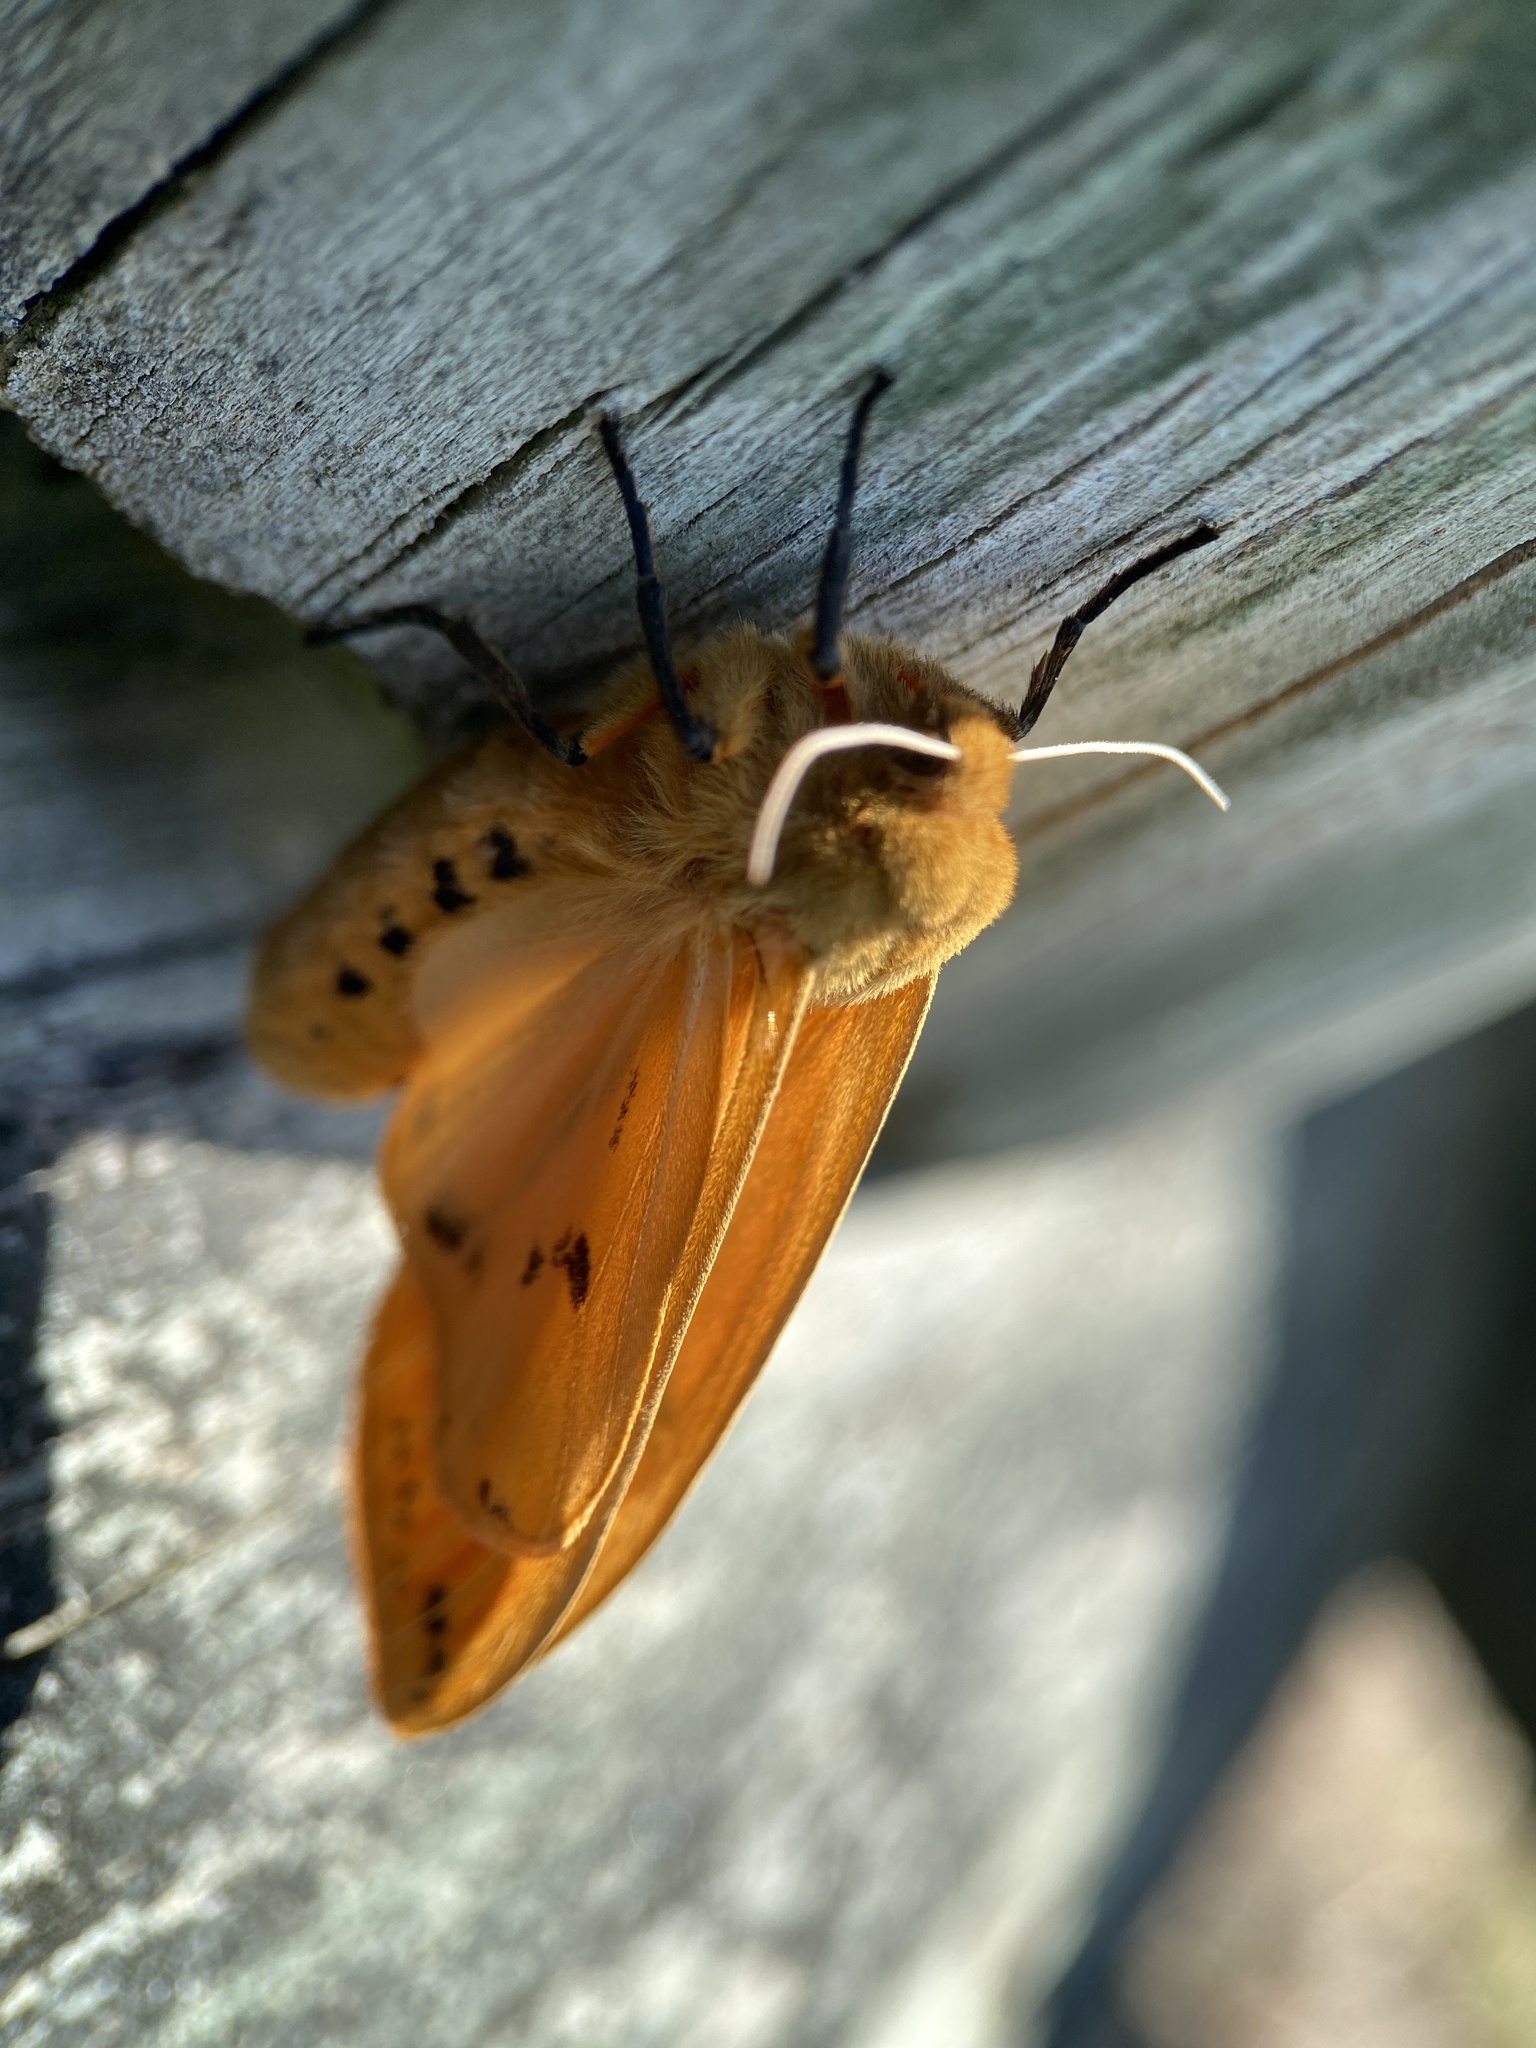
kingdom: Animalia
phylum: Arthropoda
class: Insecta
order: Lepidoptera
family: Erebidae
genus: Pyrrharctia
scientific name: Pyrrharctia isabella
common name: Isabella tiger moth
